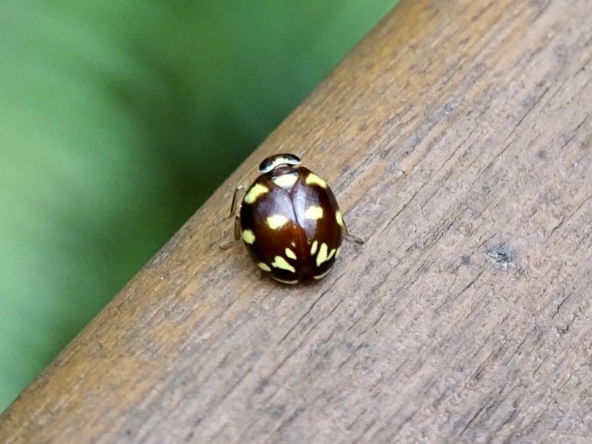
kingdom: Animalia
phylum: Arthropoda
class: Insecta
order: Hemiptera
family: Issidae
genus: Ceratogergithus
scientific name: Ceratogergithus pseudotessellatus
